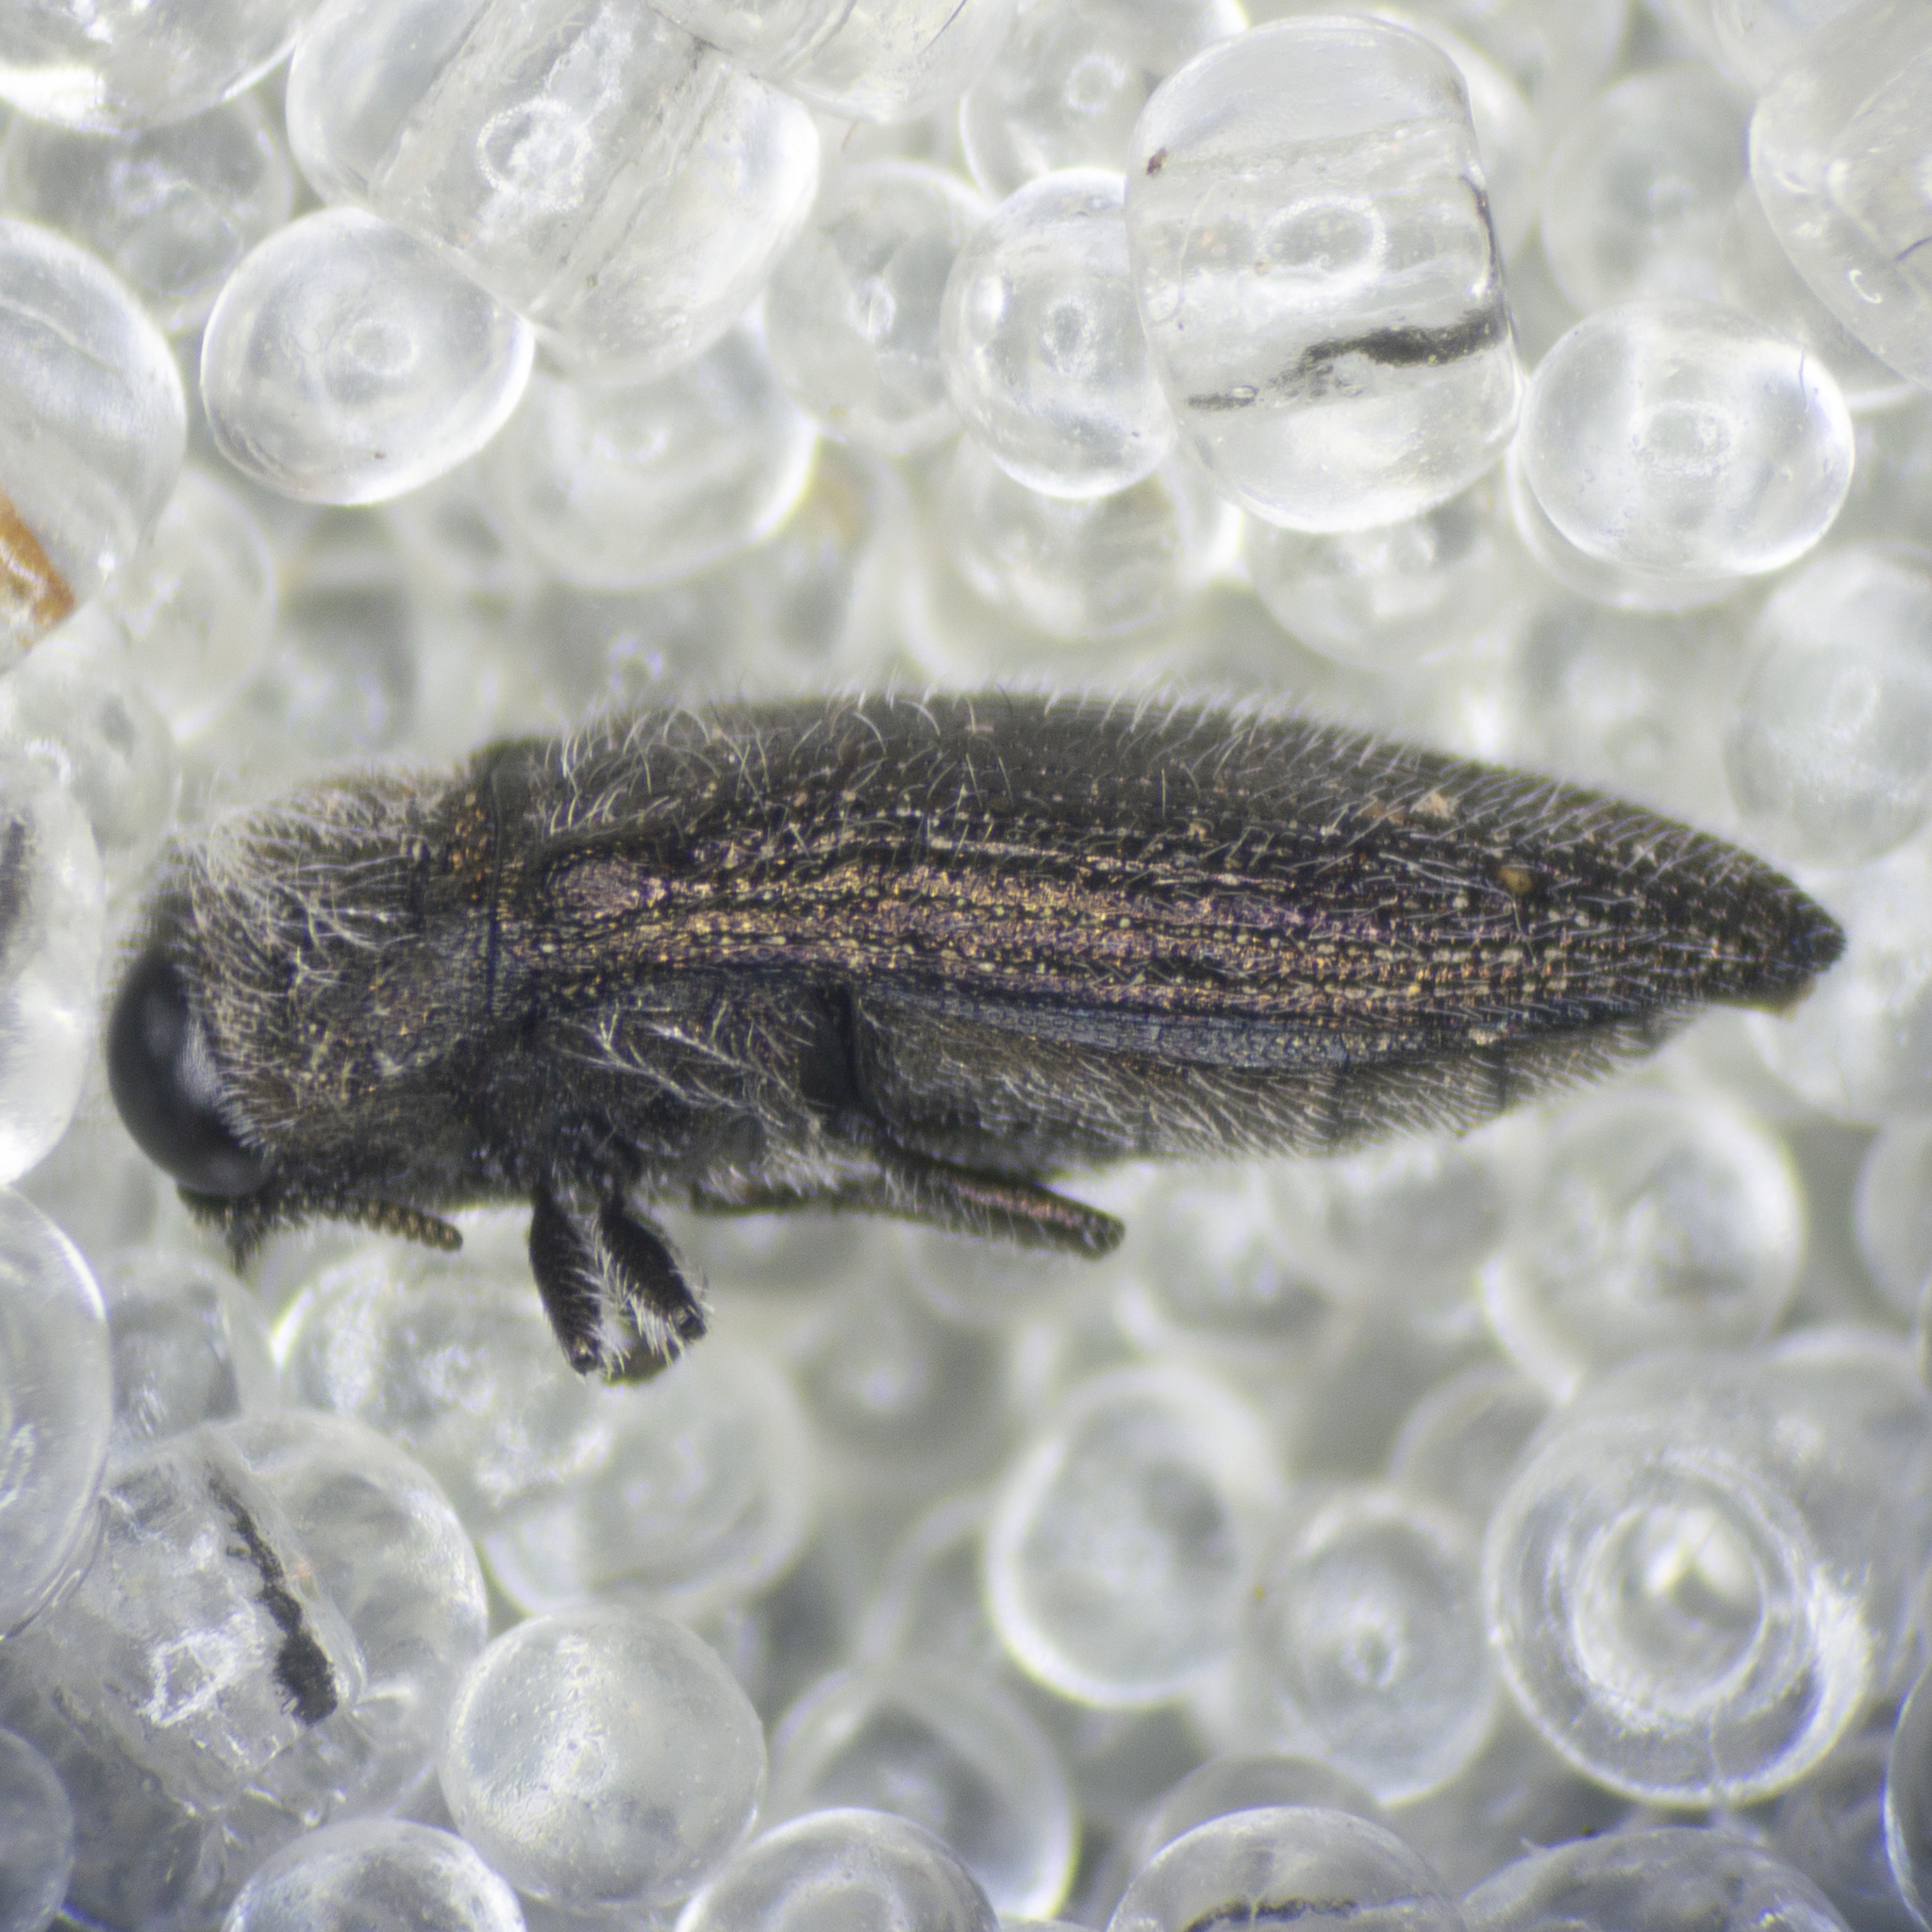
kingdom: Animalia
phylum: Arthropoda
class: Insecta
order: Coleoptera
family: Buprestidae
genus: Acmaeodera
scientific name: Acmaeodera brevipes
